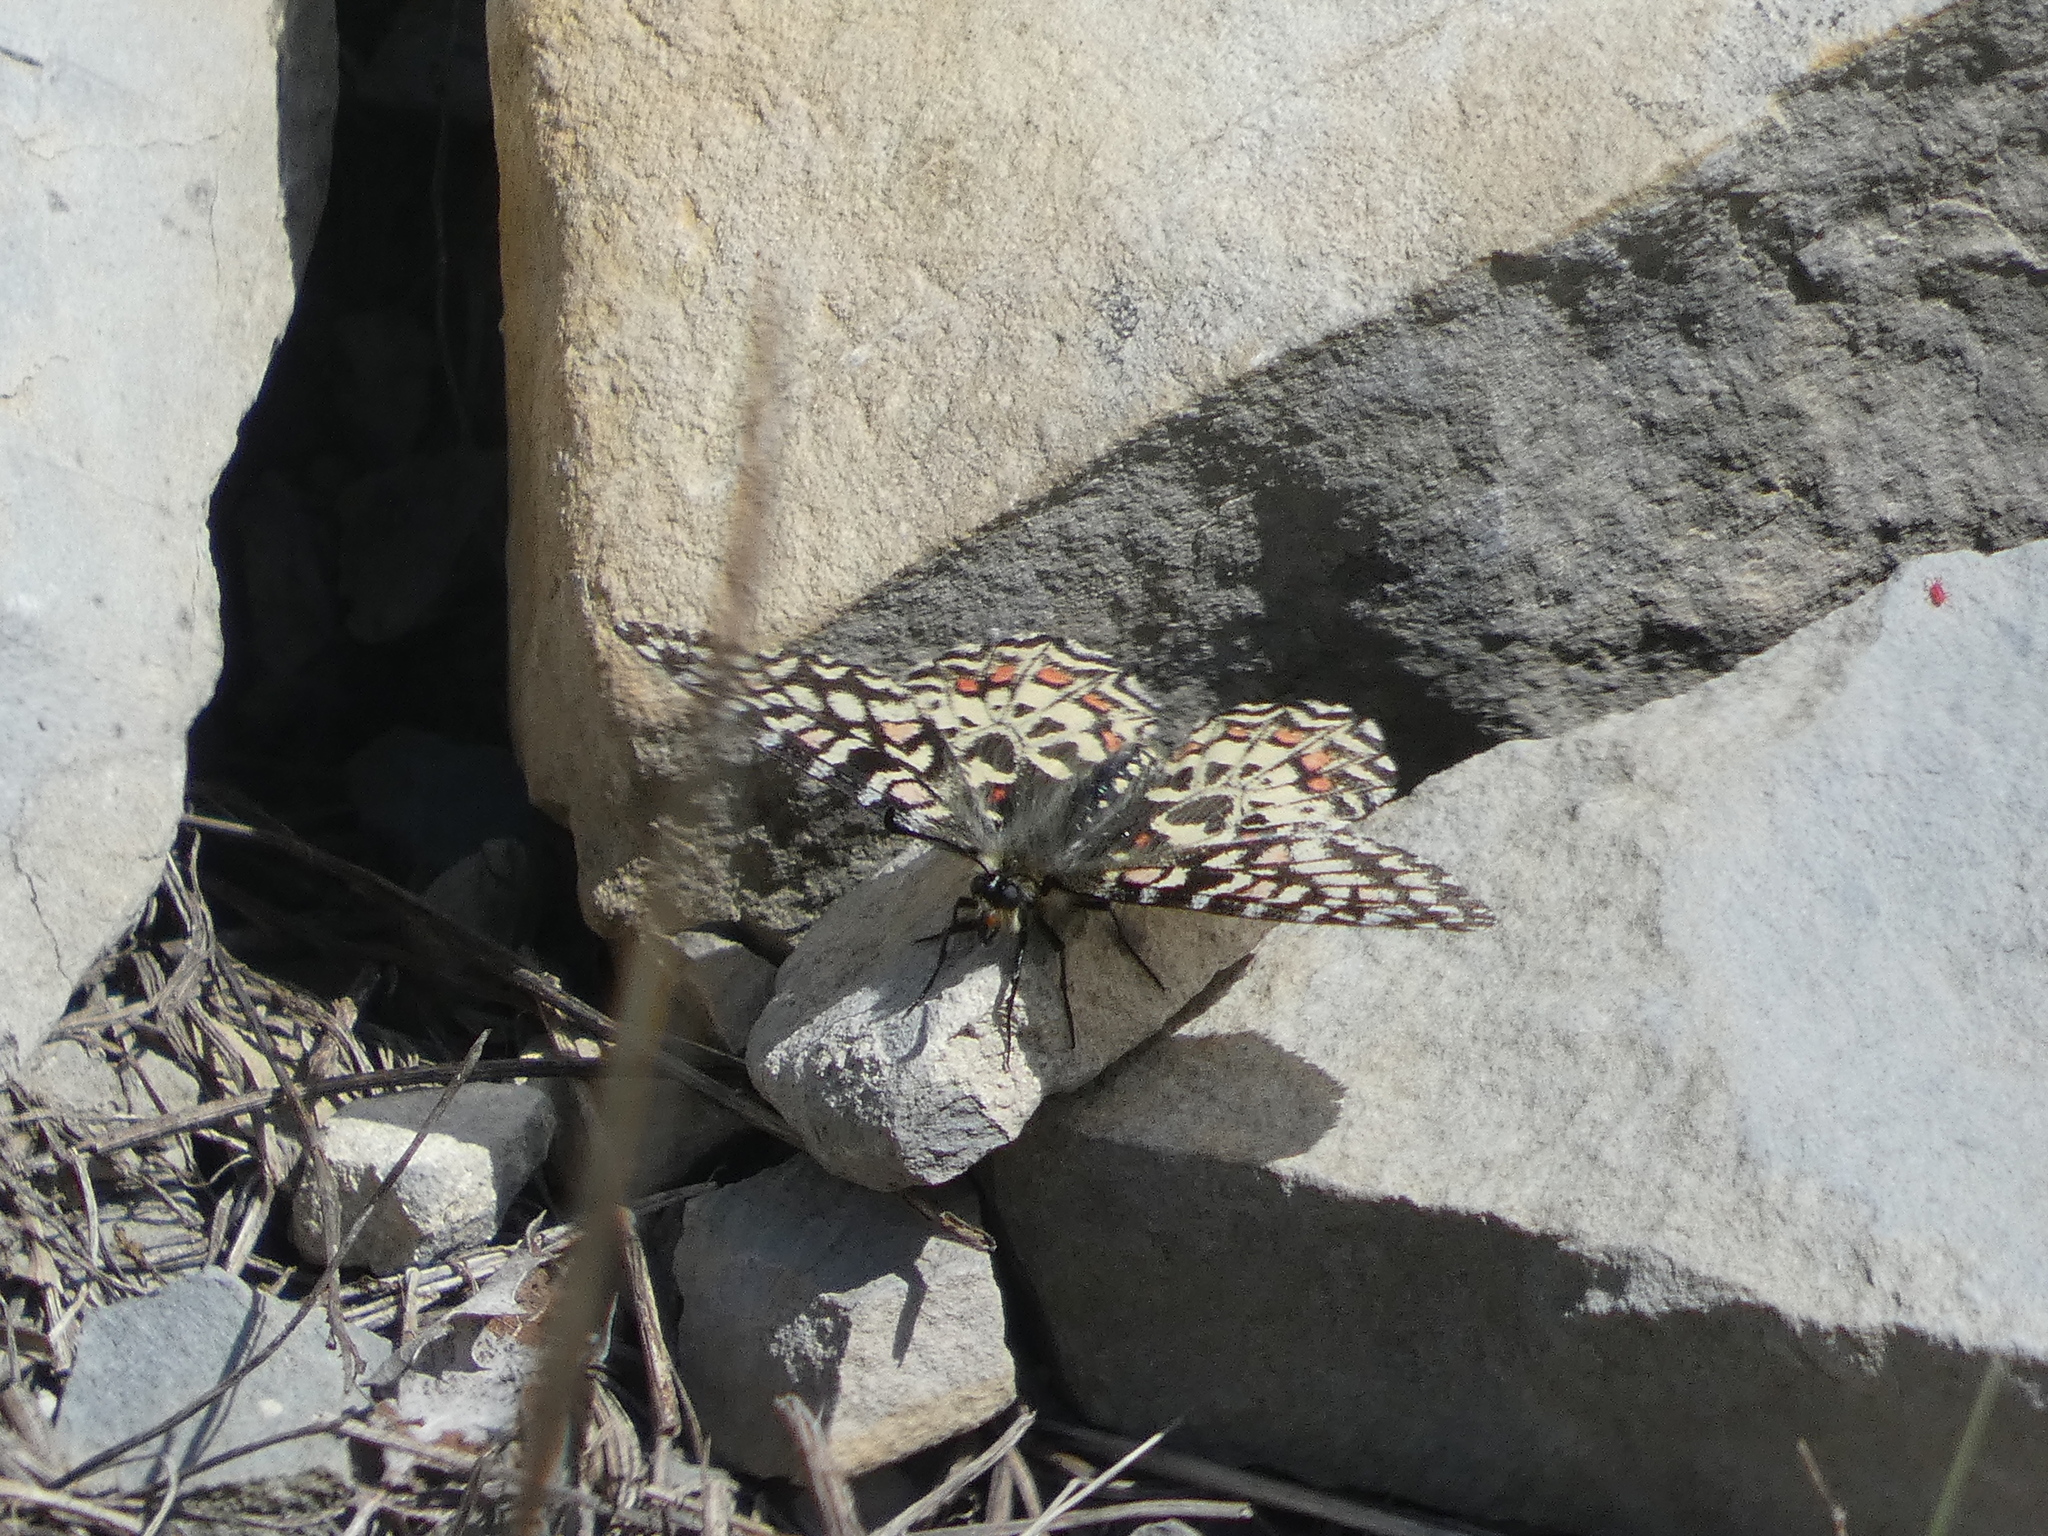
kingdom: Animalia
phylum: Arthropoda
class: Insecta
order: Lepidoptera
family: Papilionidae
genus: Zerynthia
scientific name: Zerynthia rumina
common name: Spanish festoon
